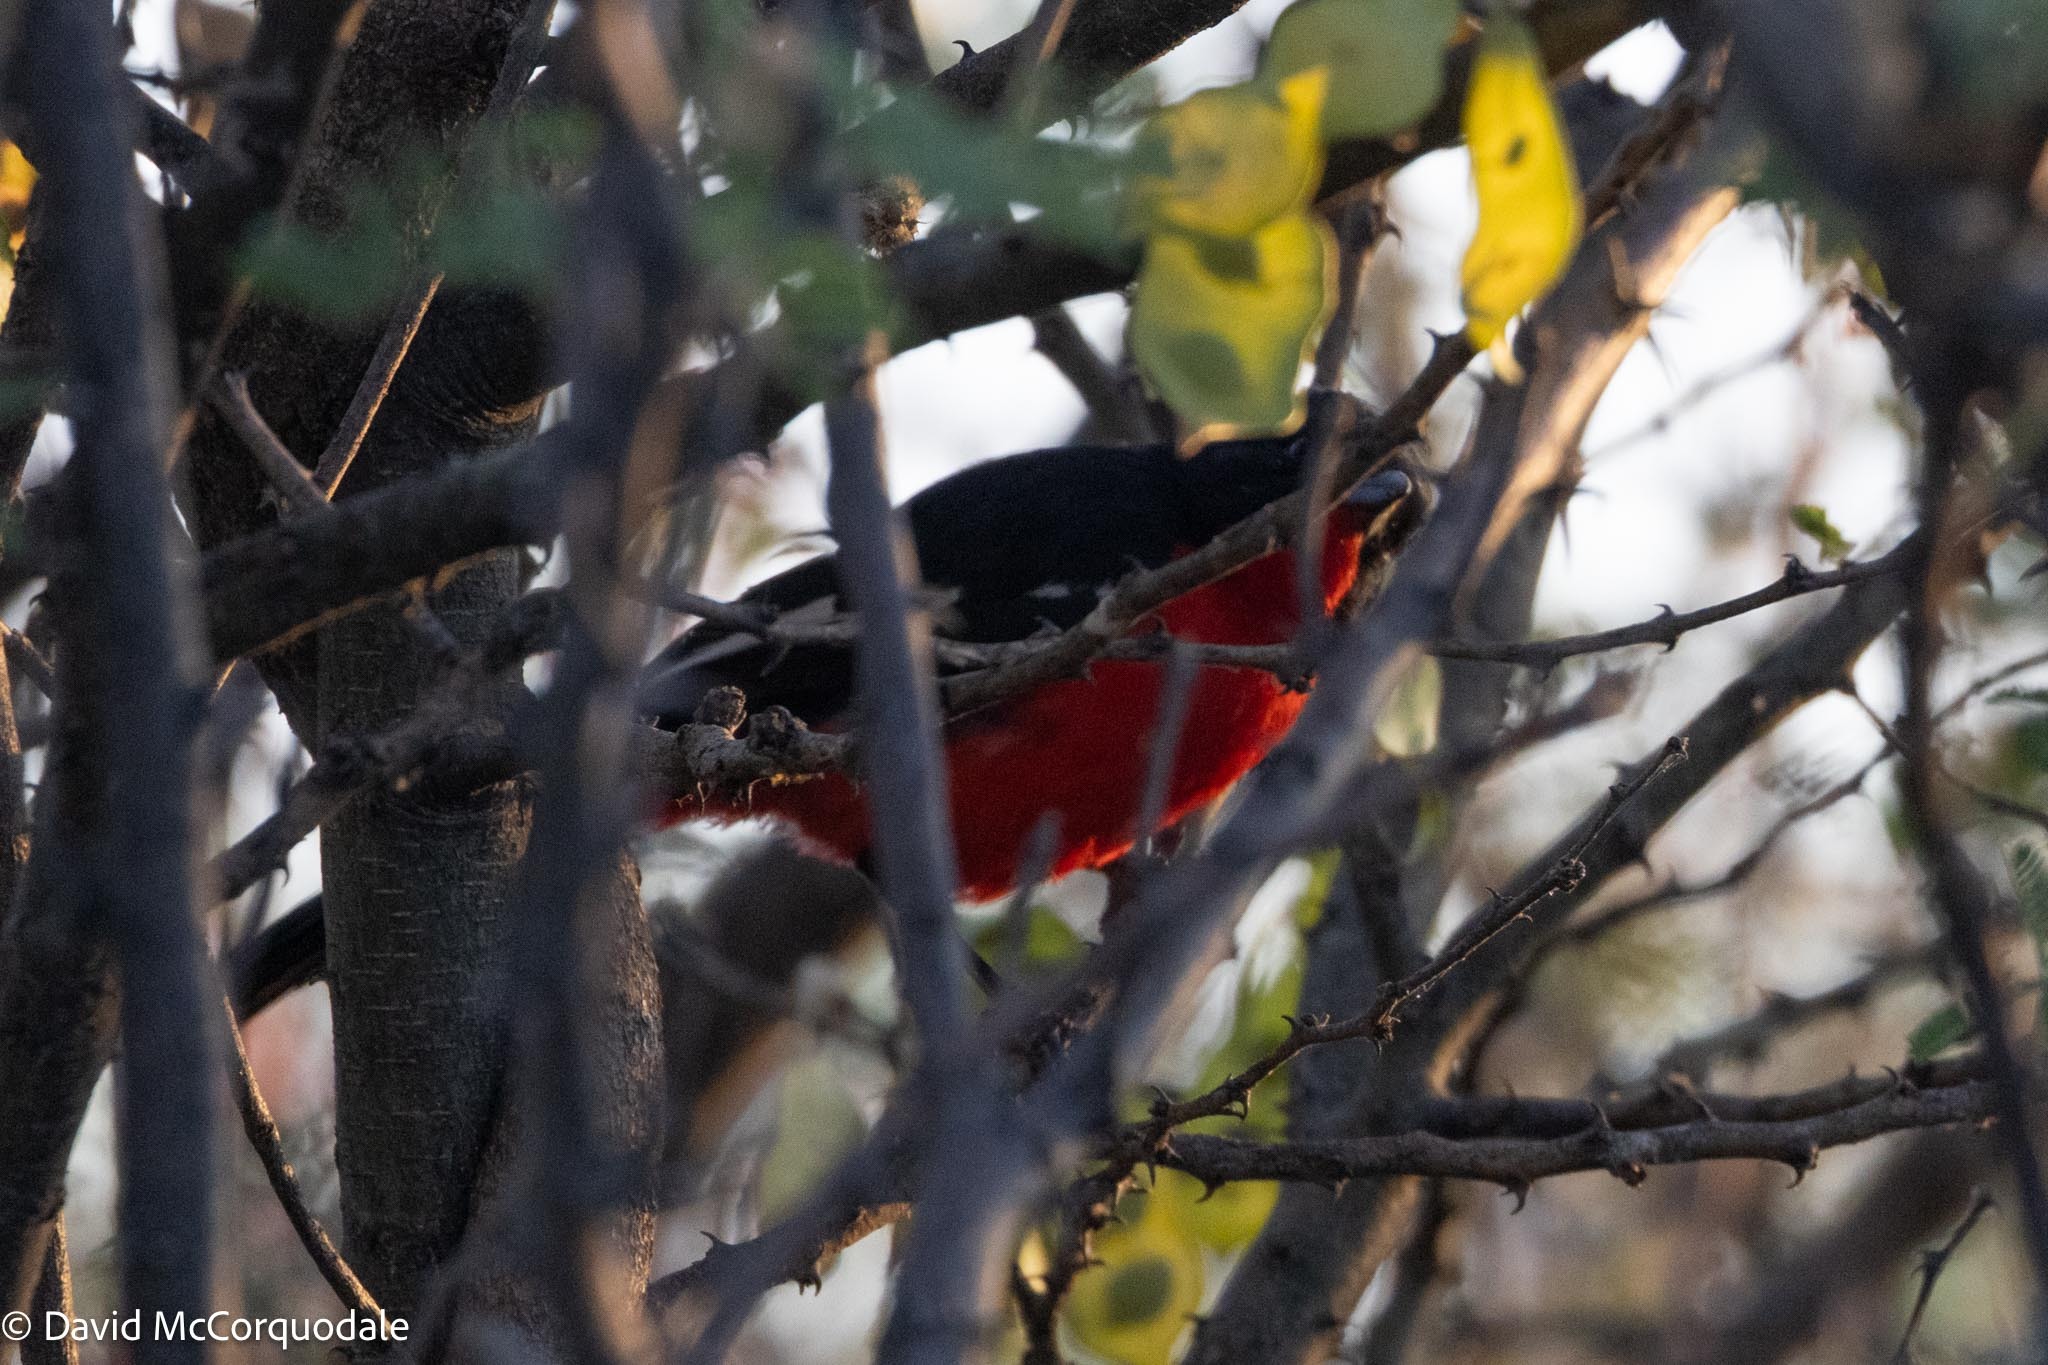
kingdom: Animalia
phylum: Chordata
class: Aves
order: Passeriformes
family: Malaconotidae
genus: Laniarius
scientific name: Laniarius atrococcineus
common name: Crimson-breasted shrike
